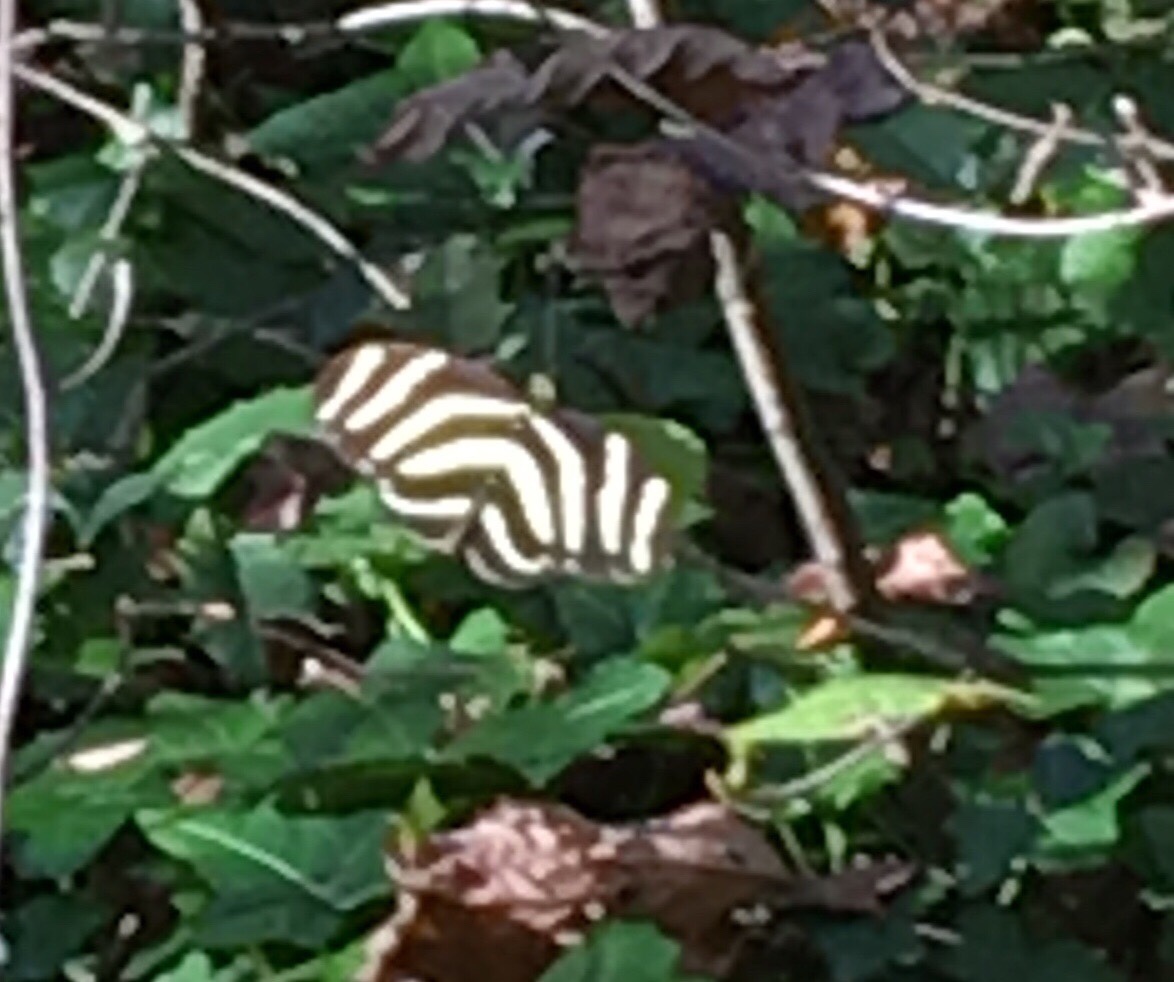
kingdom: Animalia
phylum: Arthropoda
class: Insecta
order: Lepidoptera
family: Nymphalidae
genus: Heliconius
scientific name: Heliconius charithonia
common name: Zebra long wing
